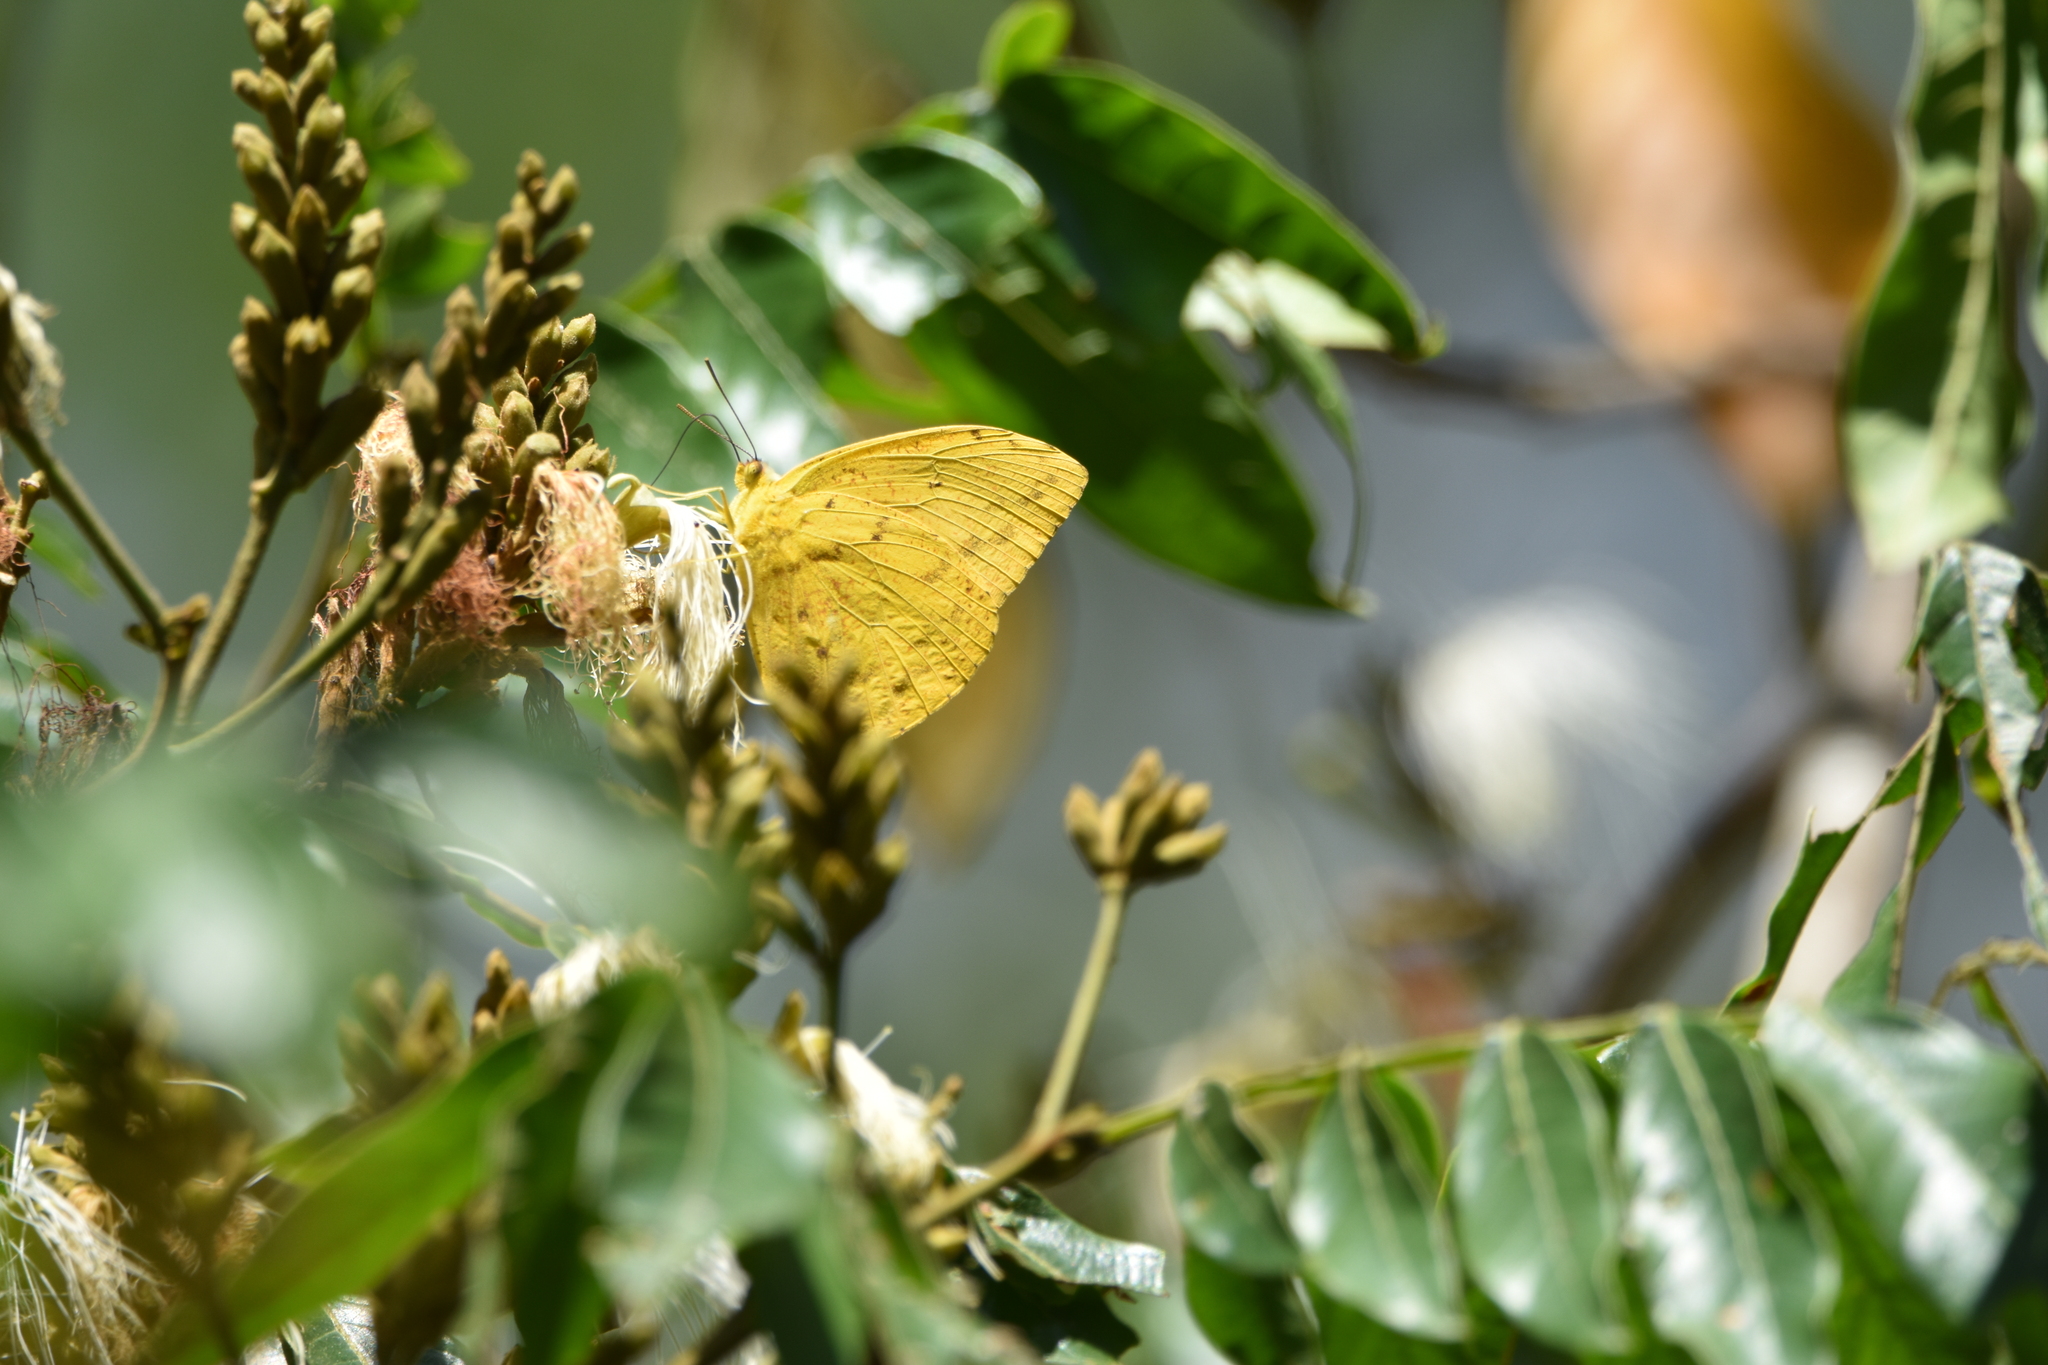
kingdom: Animalia
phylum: Arthropoda
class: Insecta
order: Lepidoptera
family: Pieridae
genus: Phoebis
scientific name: Phoebis argante
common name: Apricot sulphur
